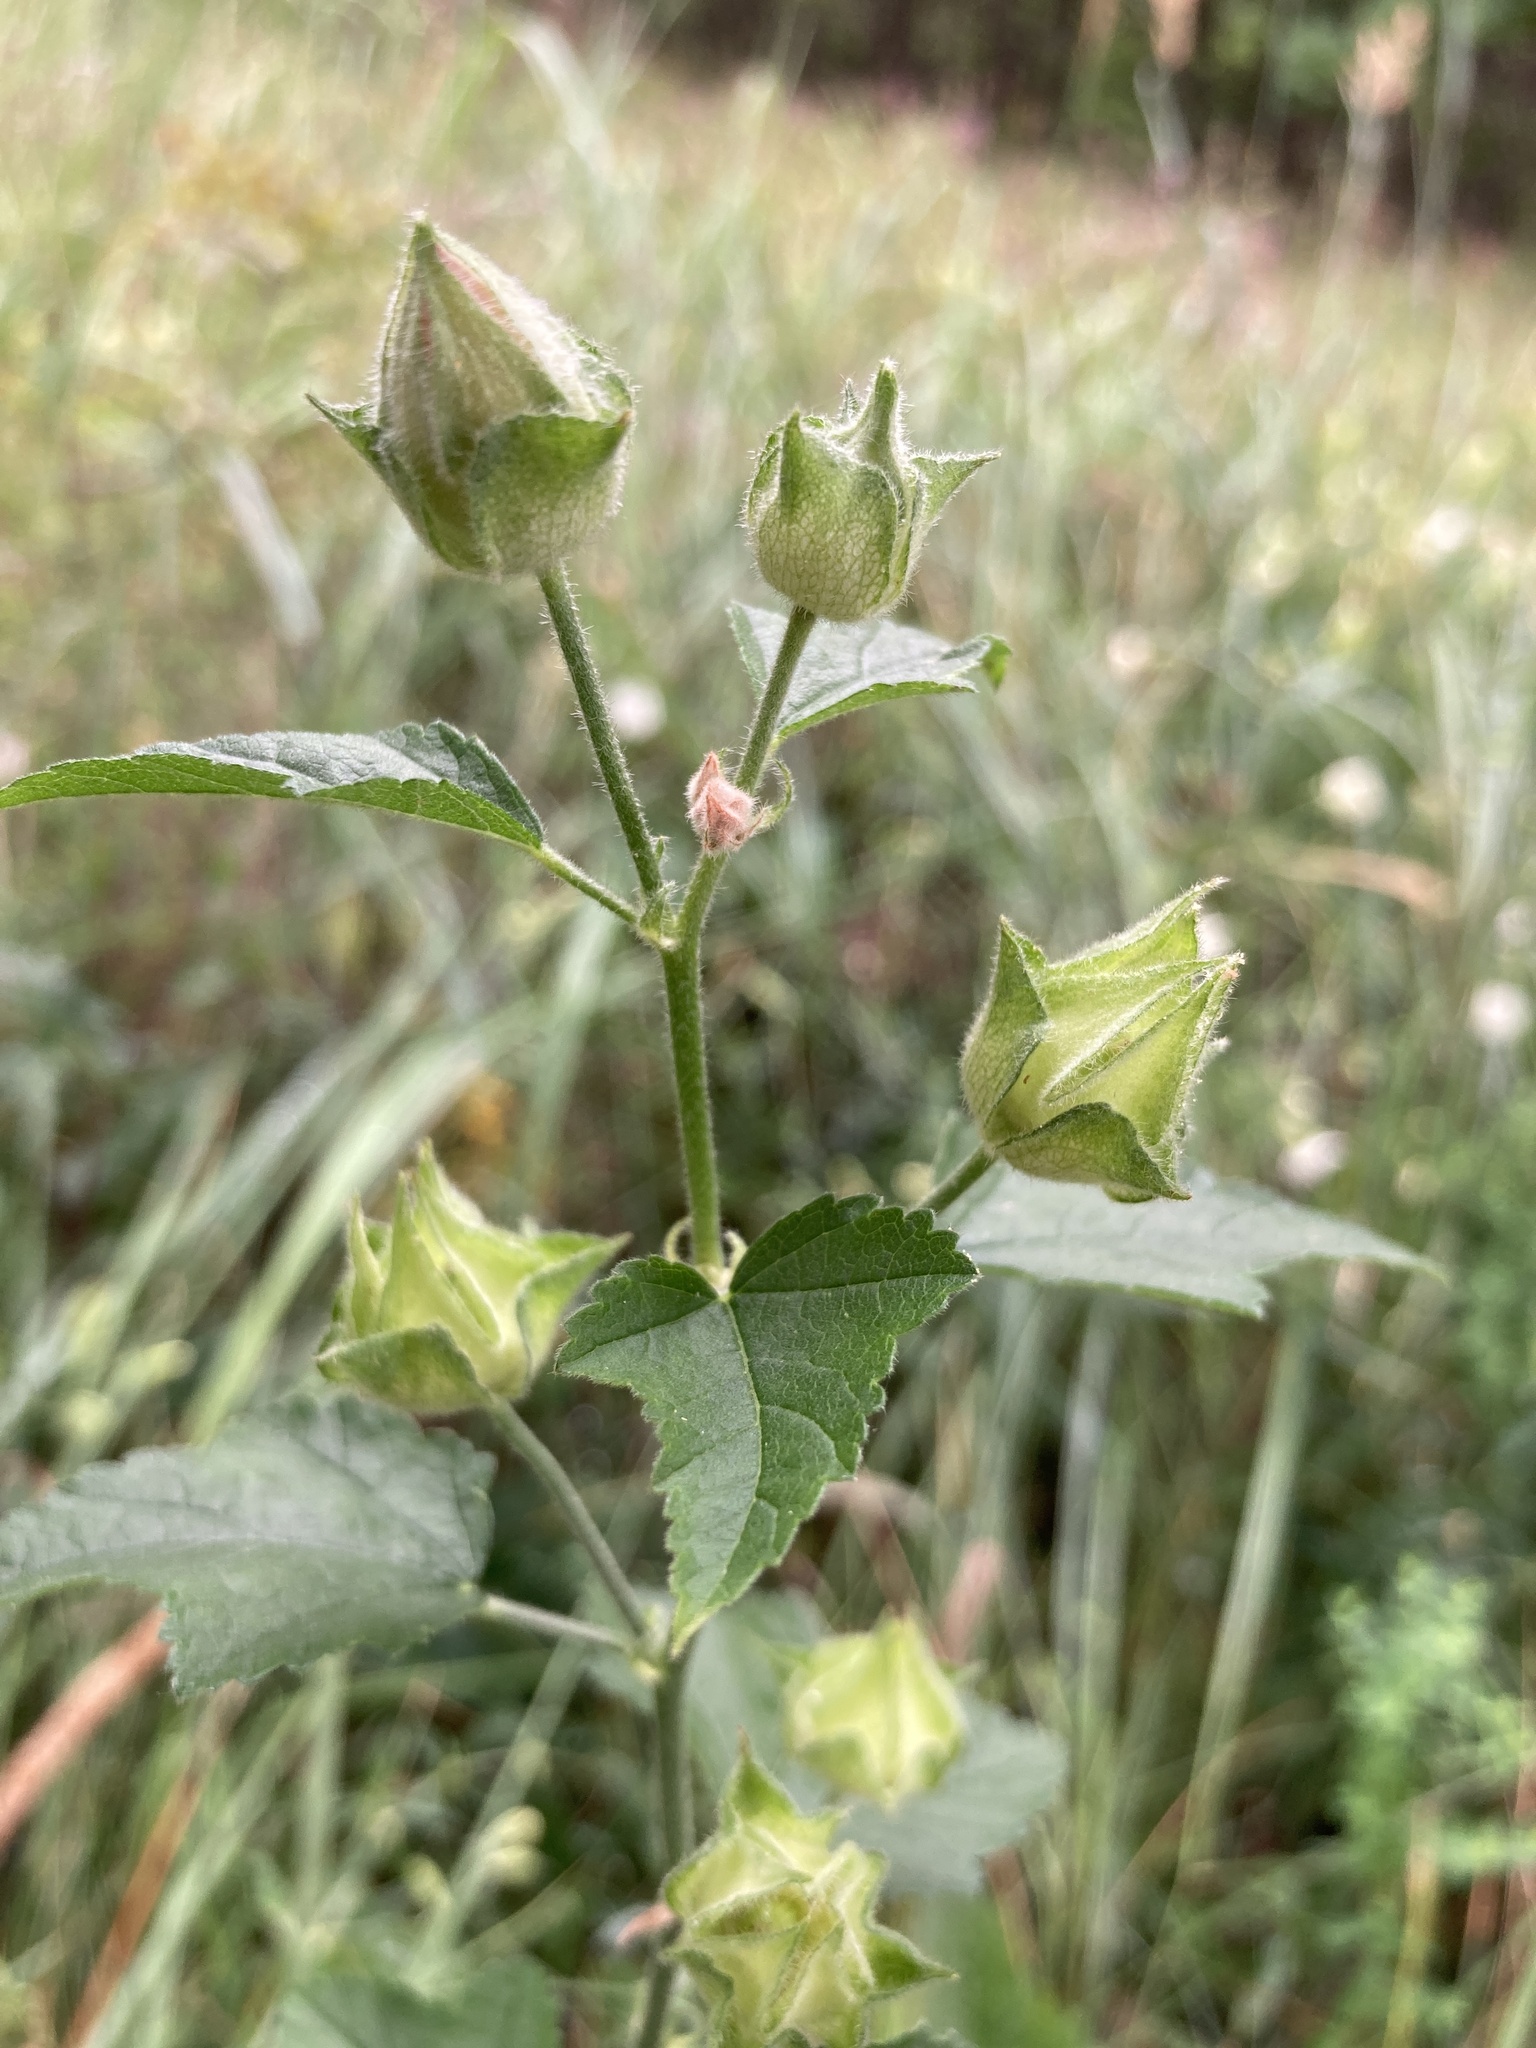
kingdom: Plantae
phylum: Tracheophyta
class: Magnoliopsida
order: Malvales
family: Malvaceae
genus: Malva
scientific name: Malva thuringiaca
